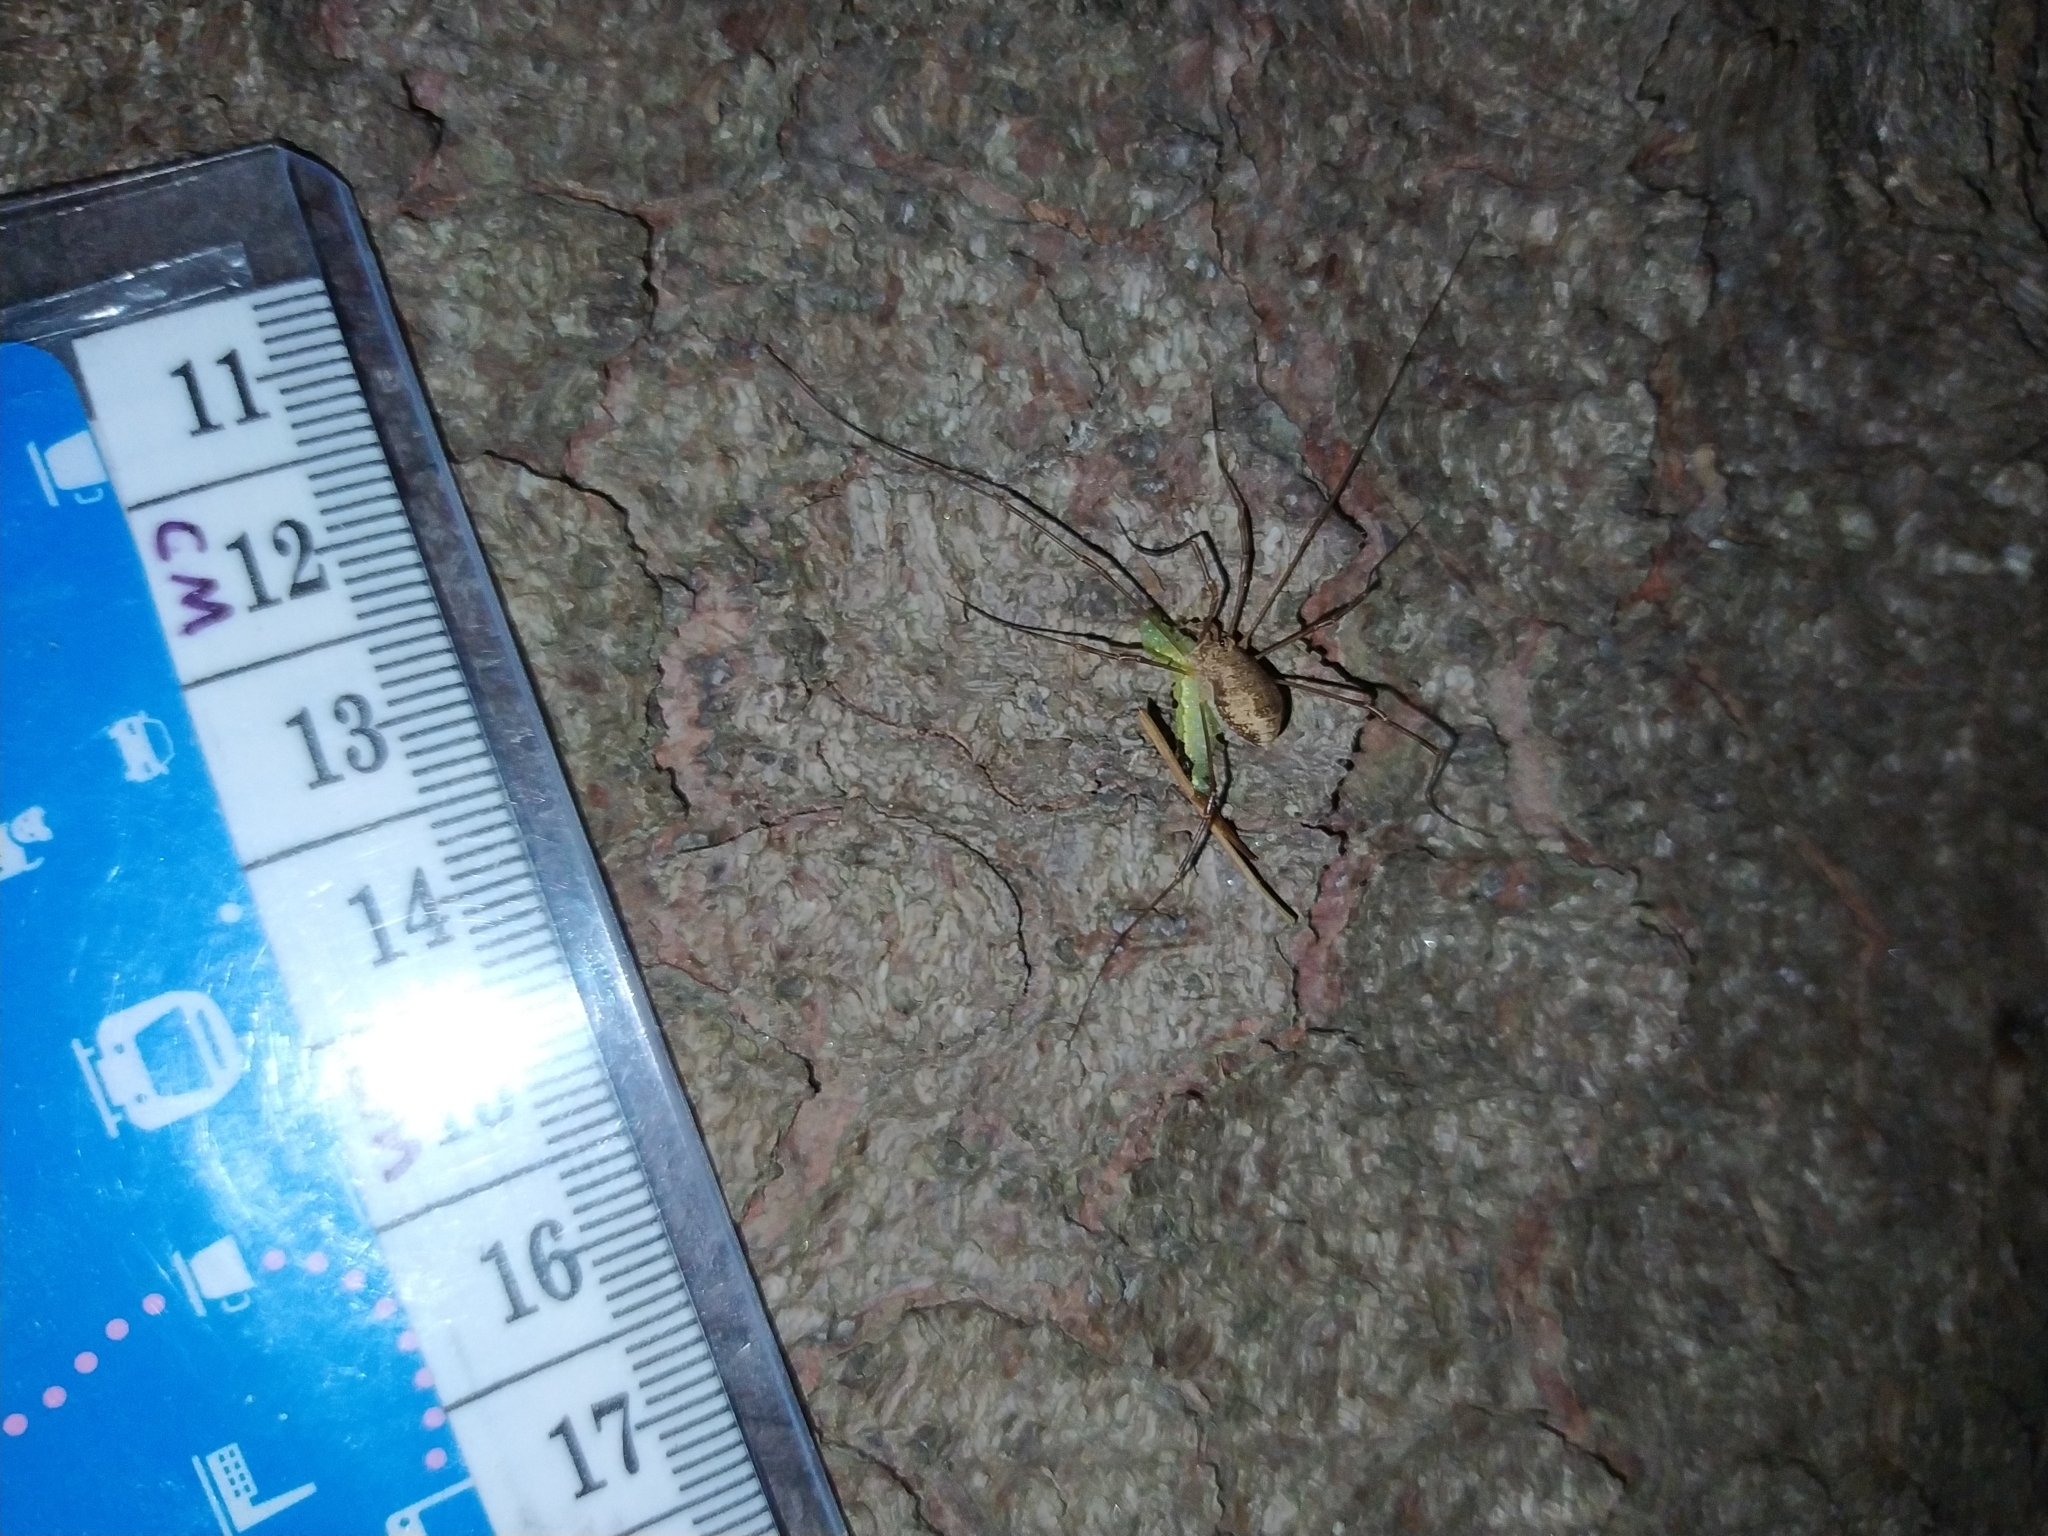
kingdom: Animalia
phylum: Arthropoda
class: Arachnida
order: Opiliones
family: Phalangiidae
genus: Rilaena
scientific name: Rilaena triangularis
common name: Spring harvestman
